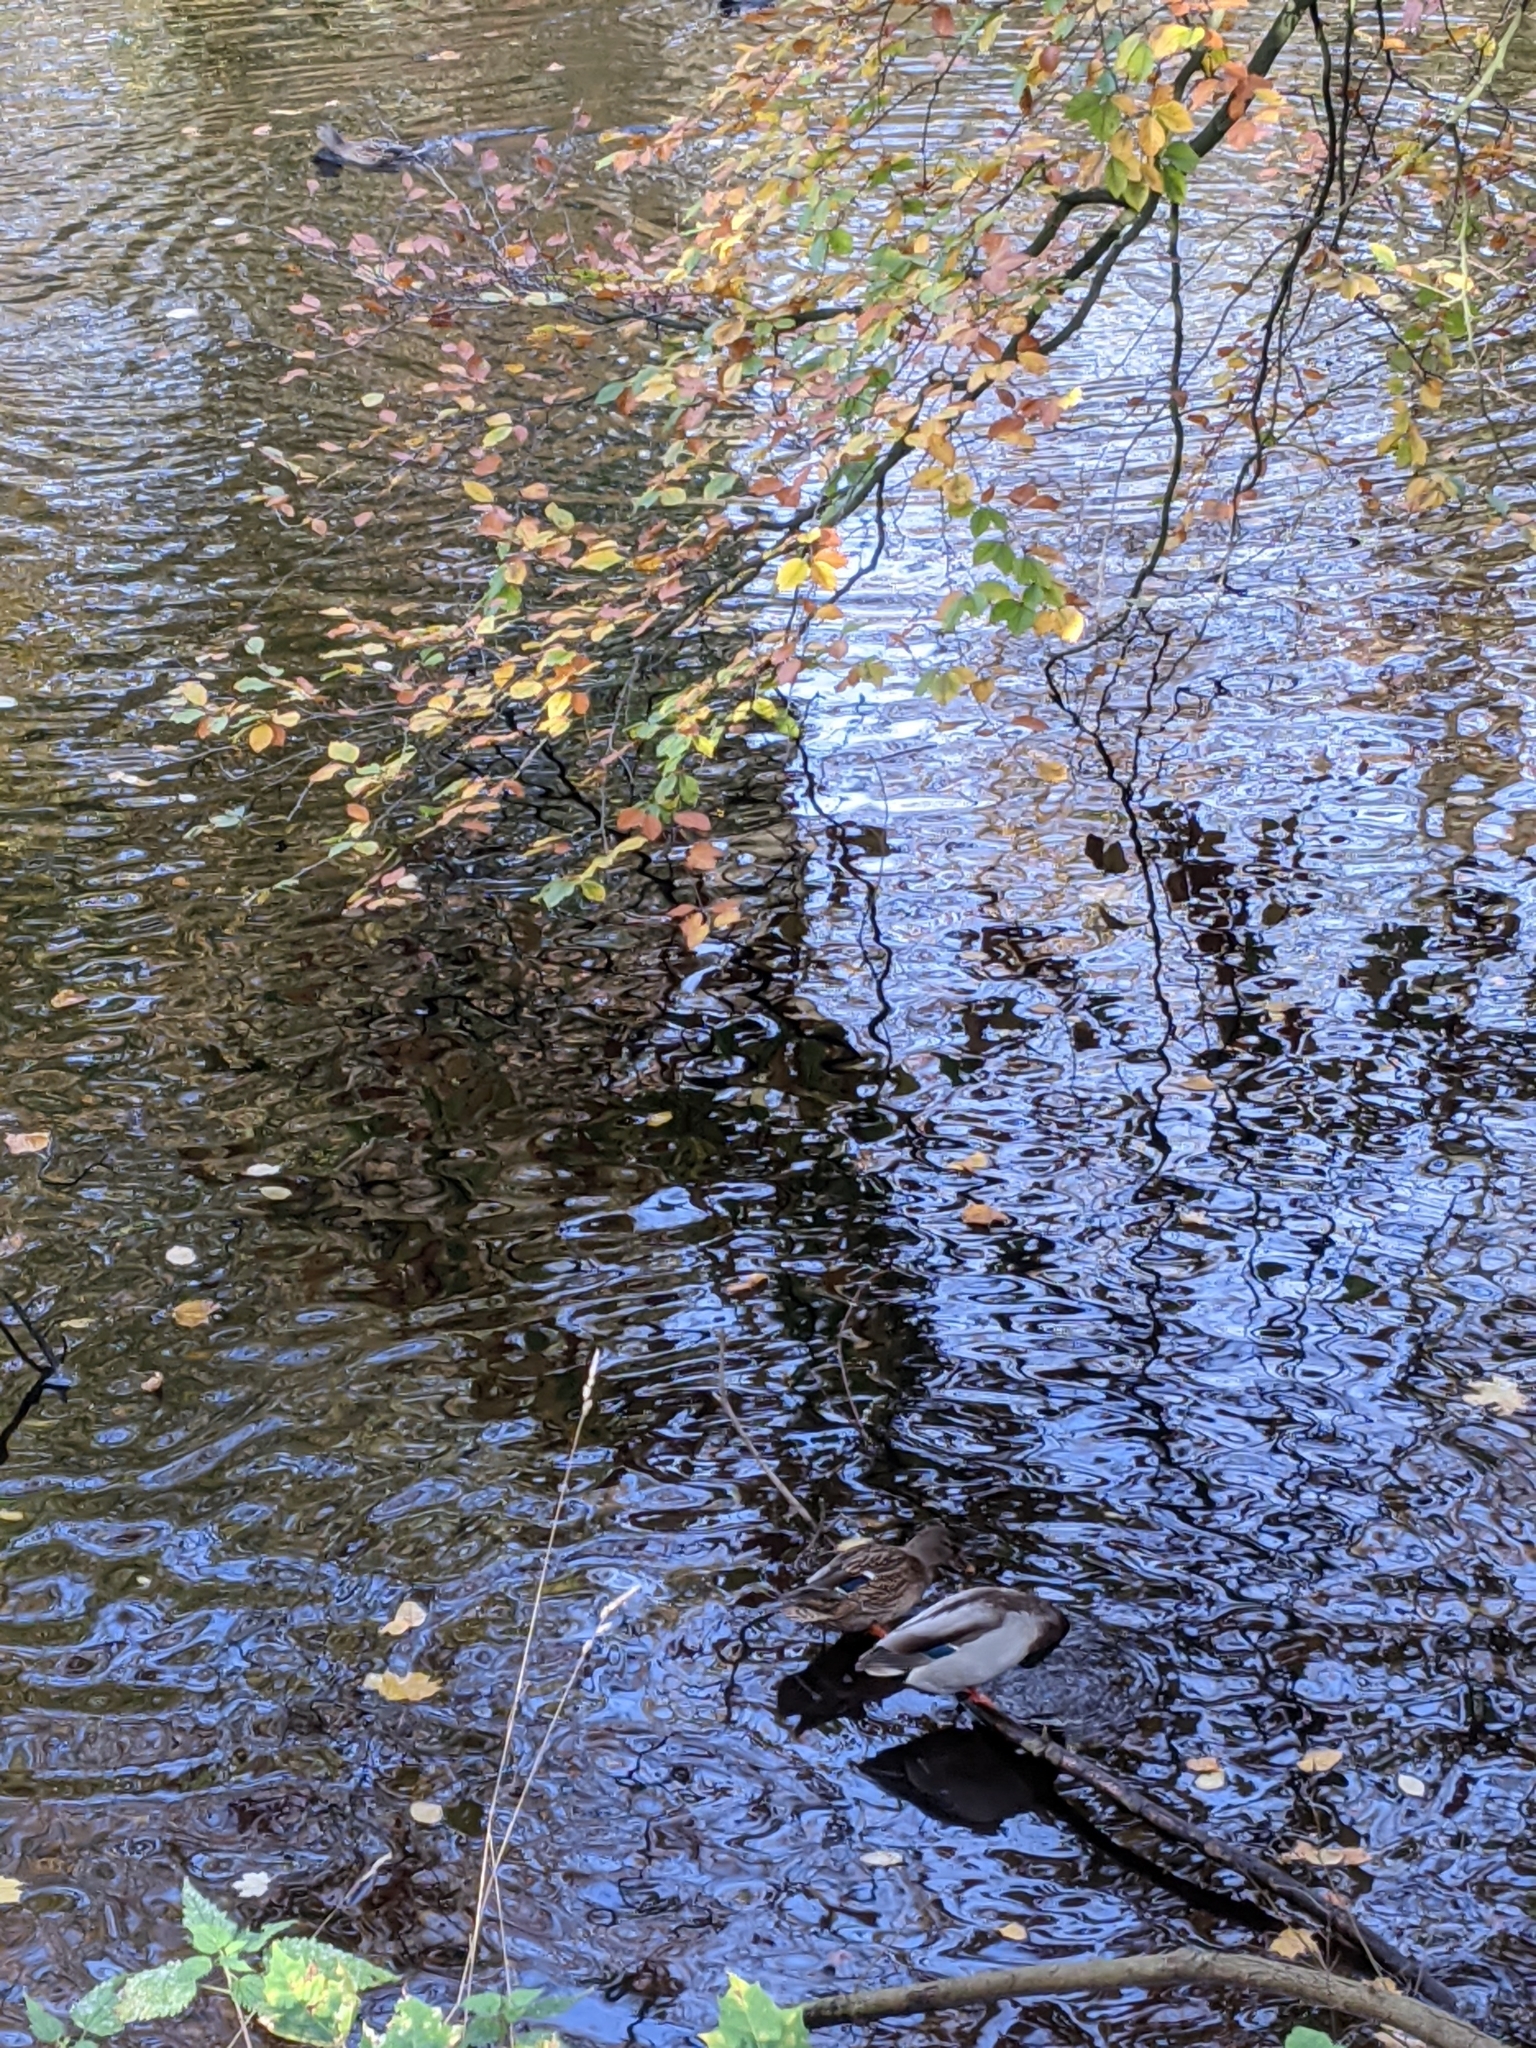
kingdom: Animalia
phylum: Chordata
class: Aves
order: Anseriformes
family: Anatidae
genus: Anas
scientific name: Anas platyrhynchos
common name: Mallard
